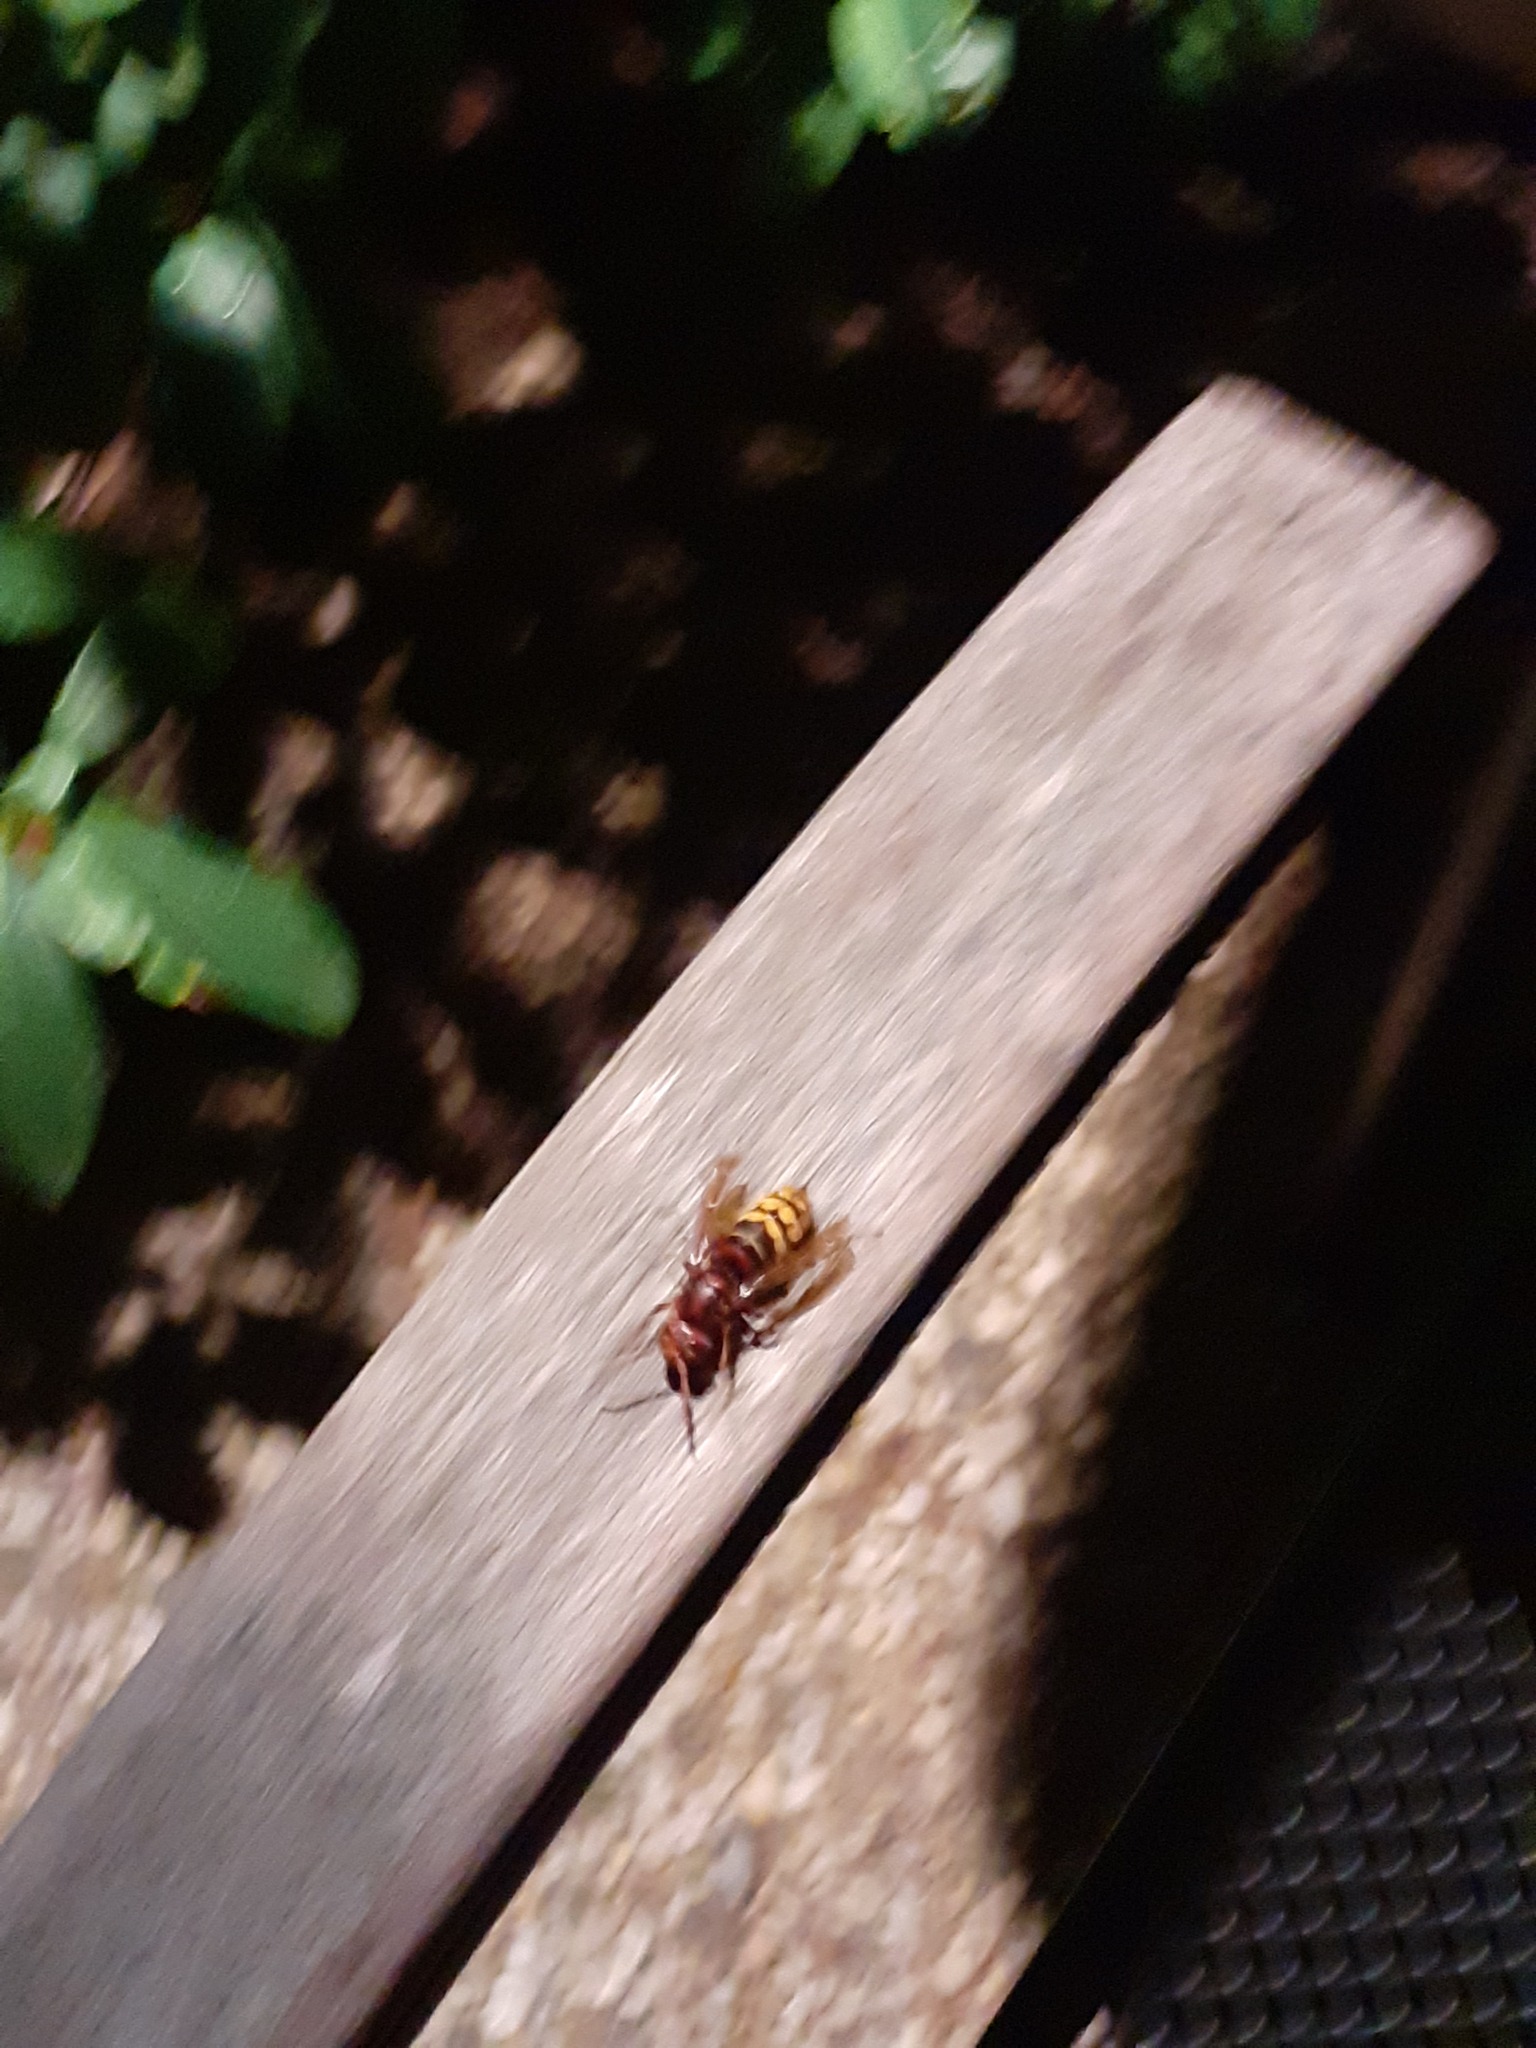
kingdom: Animalia
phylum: Arthropoda
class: Insecta
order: Hymenoptera
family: Vespidae
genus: Vespa
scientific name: Vespa crabro
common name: Hornet
